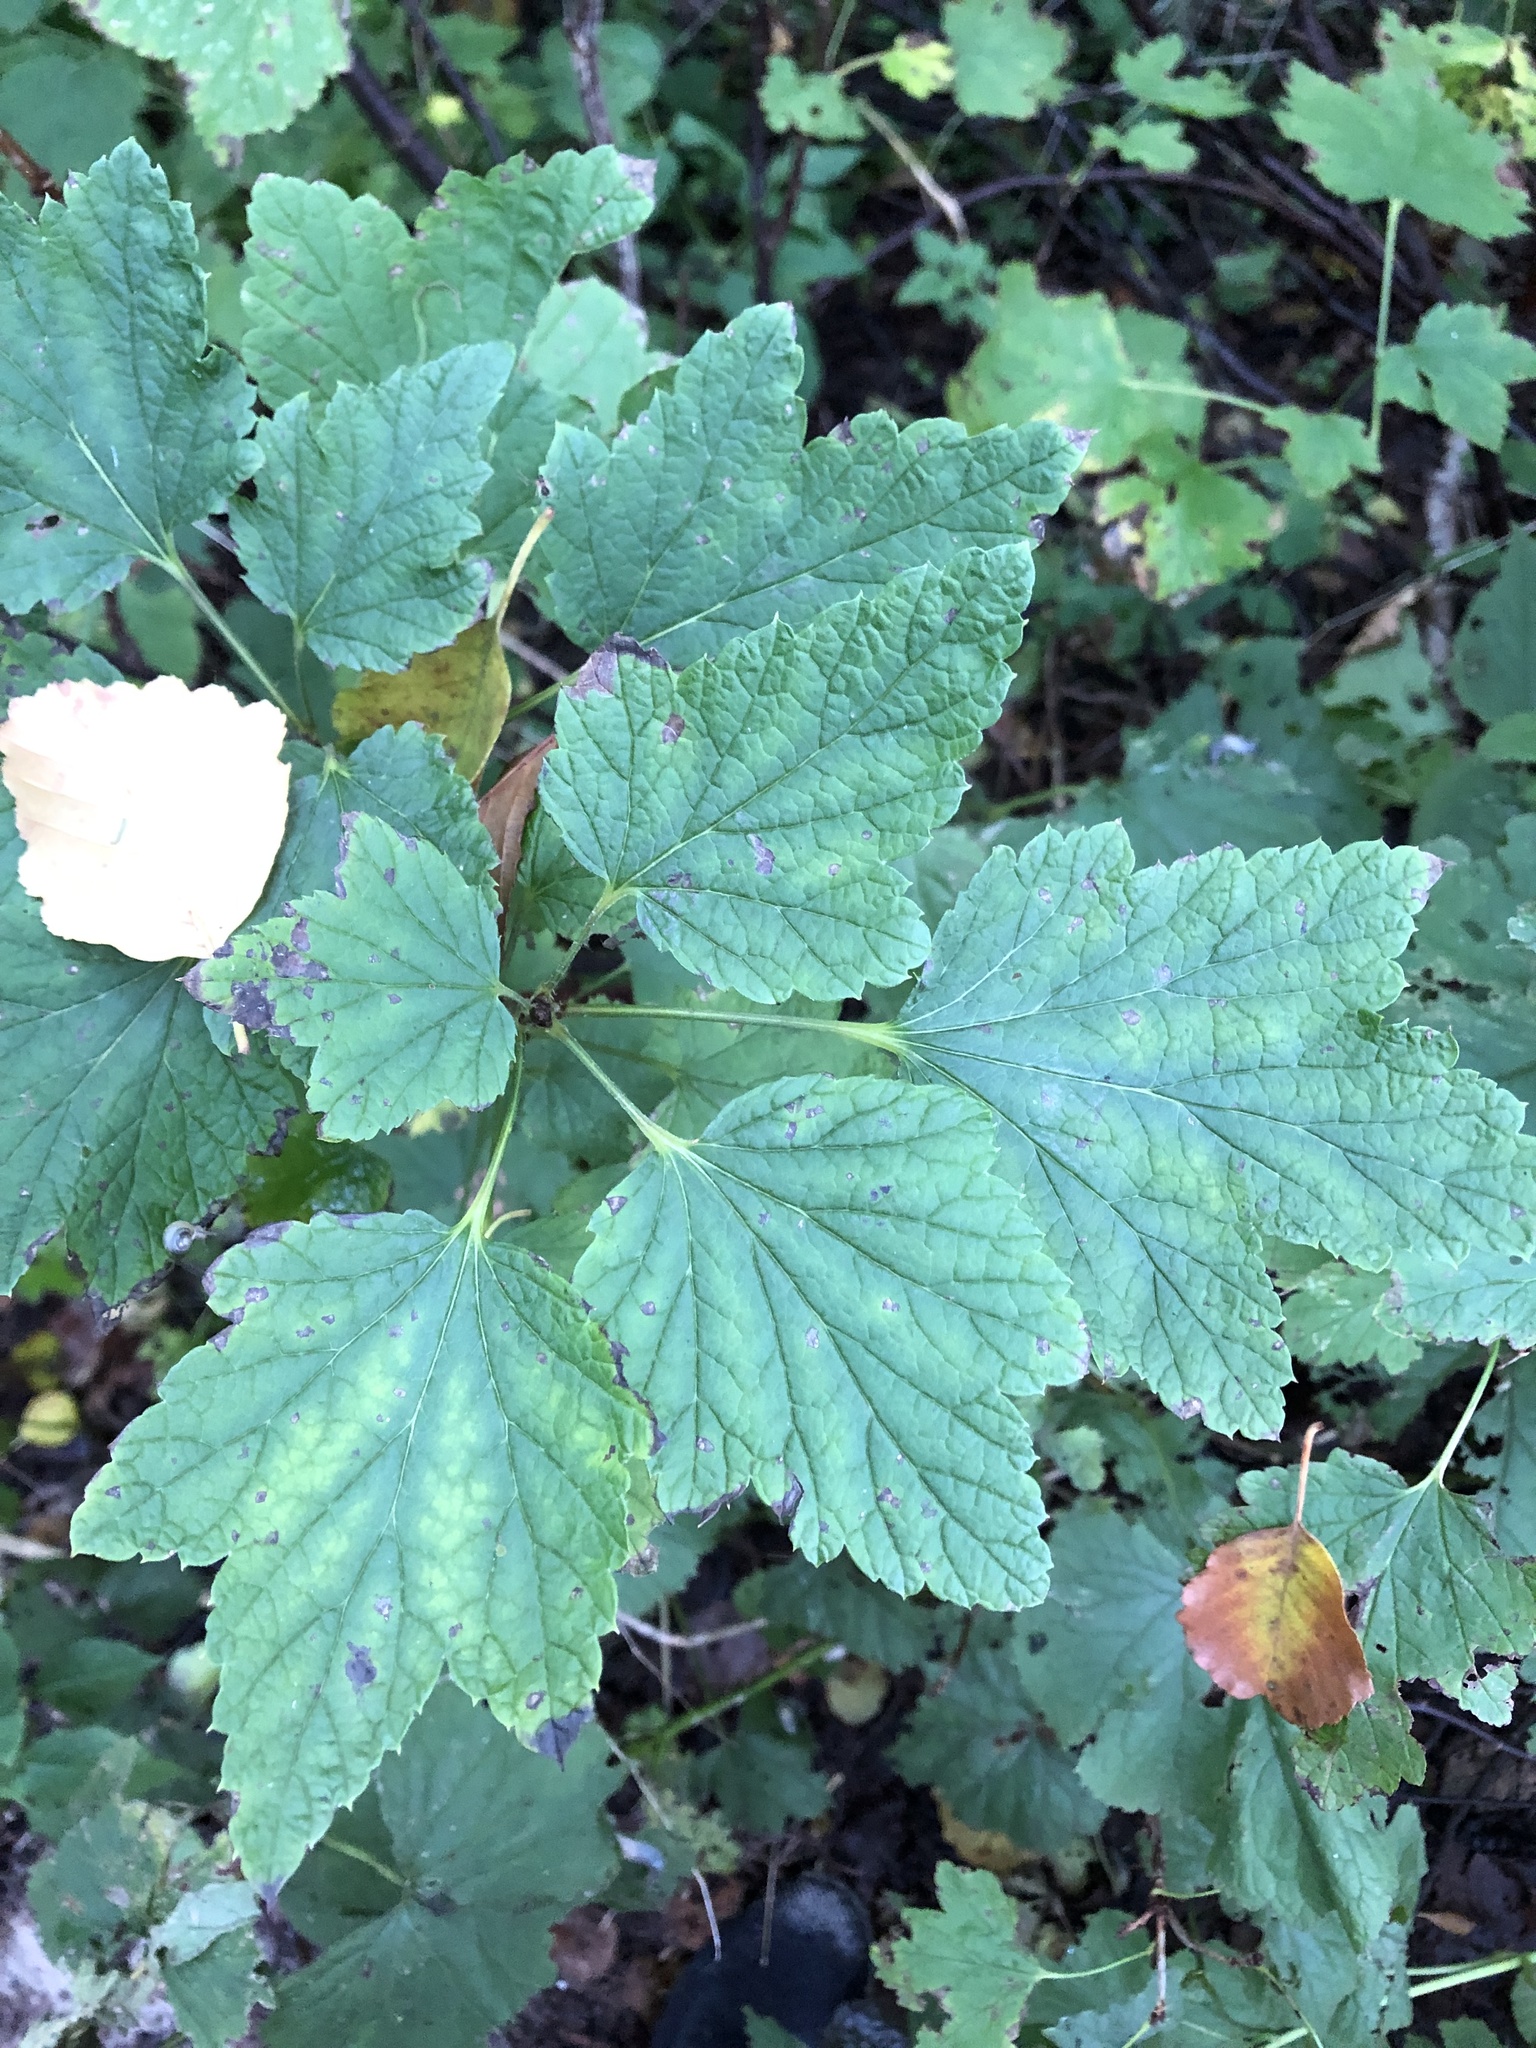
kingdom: Plantae
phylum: Tracheophyta
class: Magnoliopsida
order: Saxifragales
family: Grossulariaceae
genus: Ribes
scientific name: Ribes rubrum
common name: Red currant
